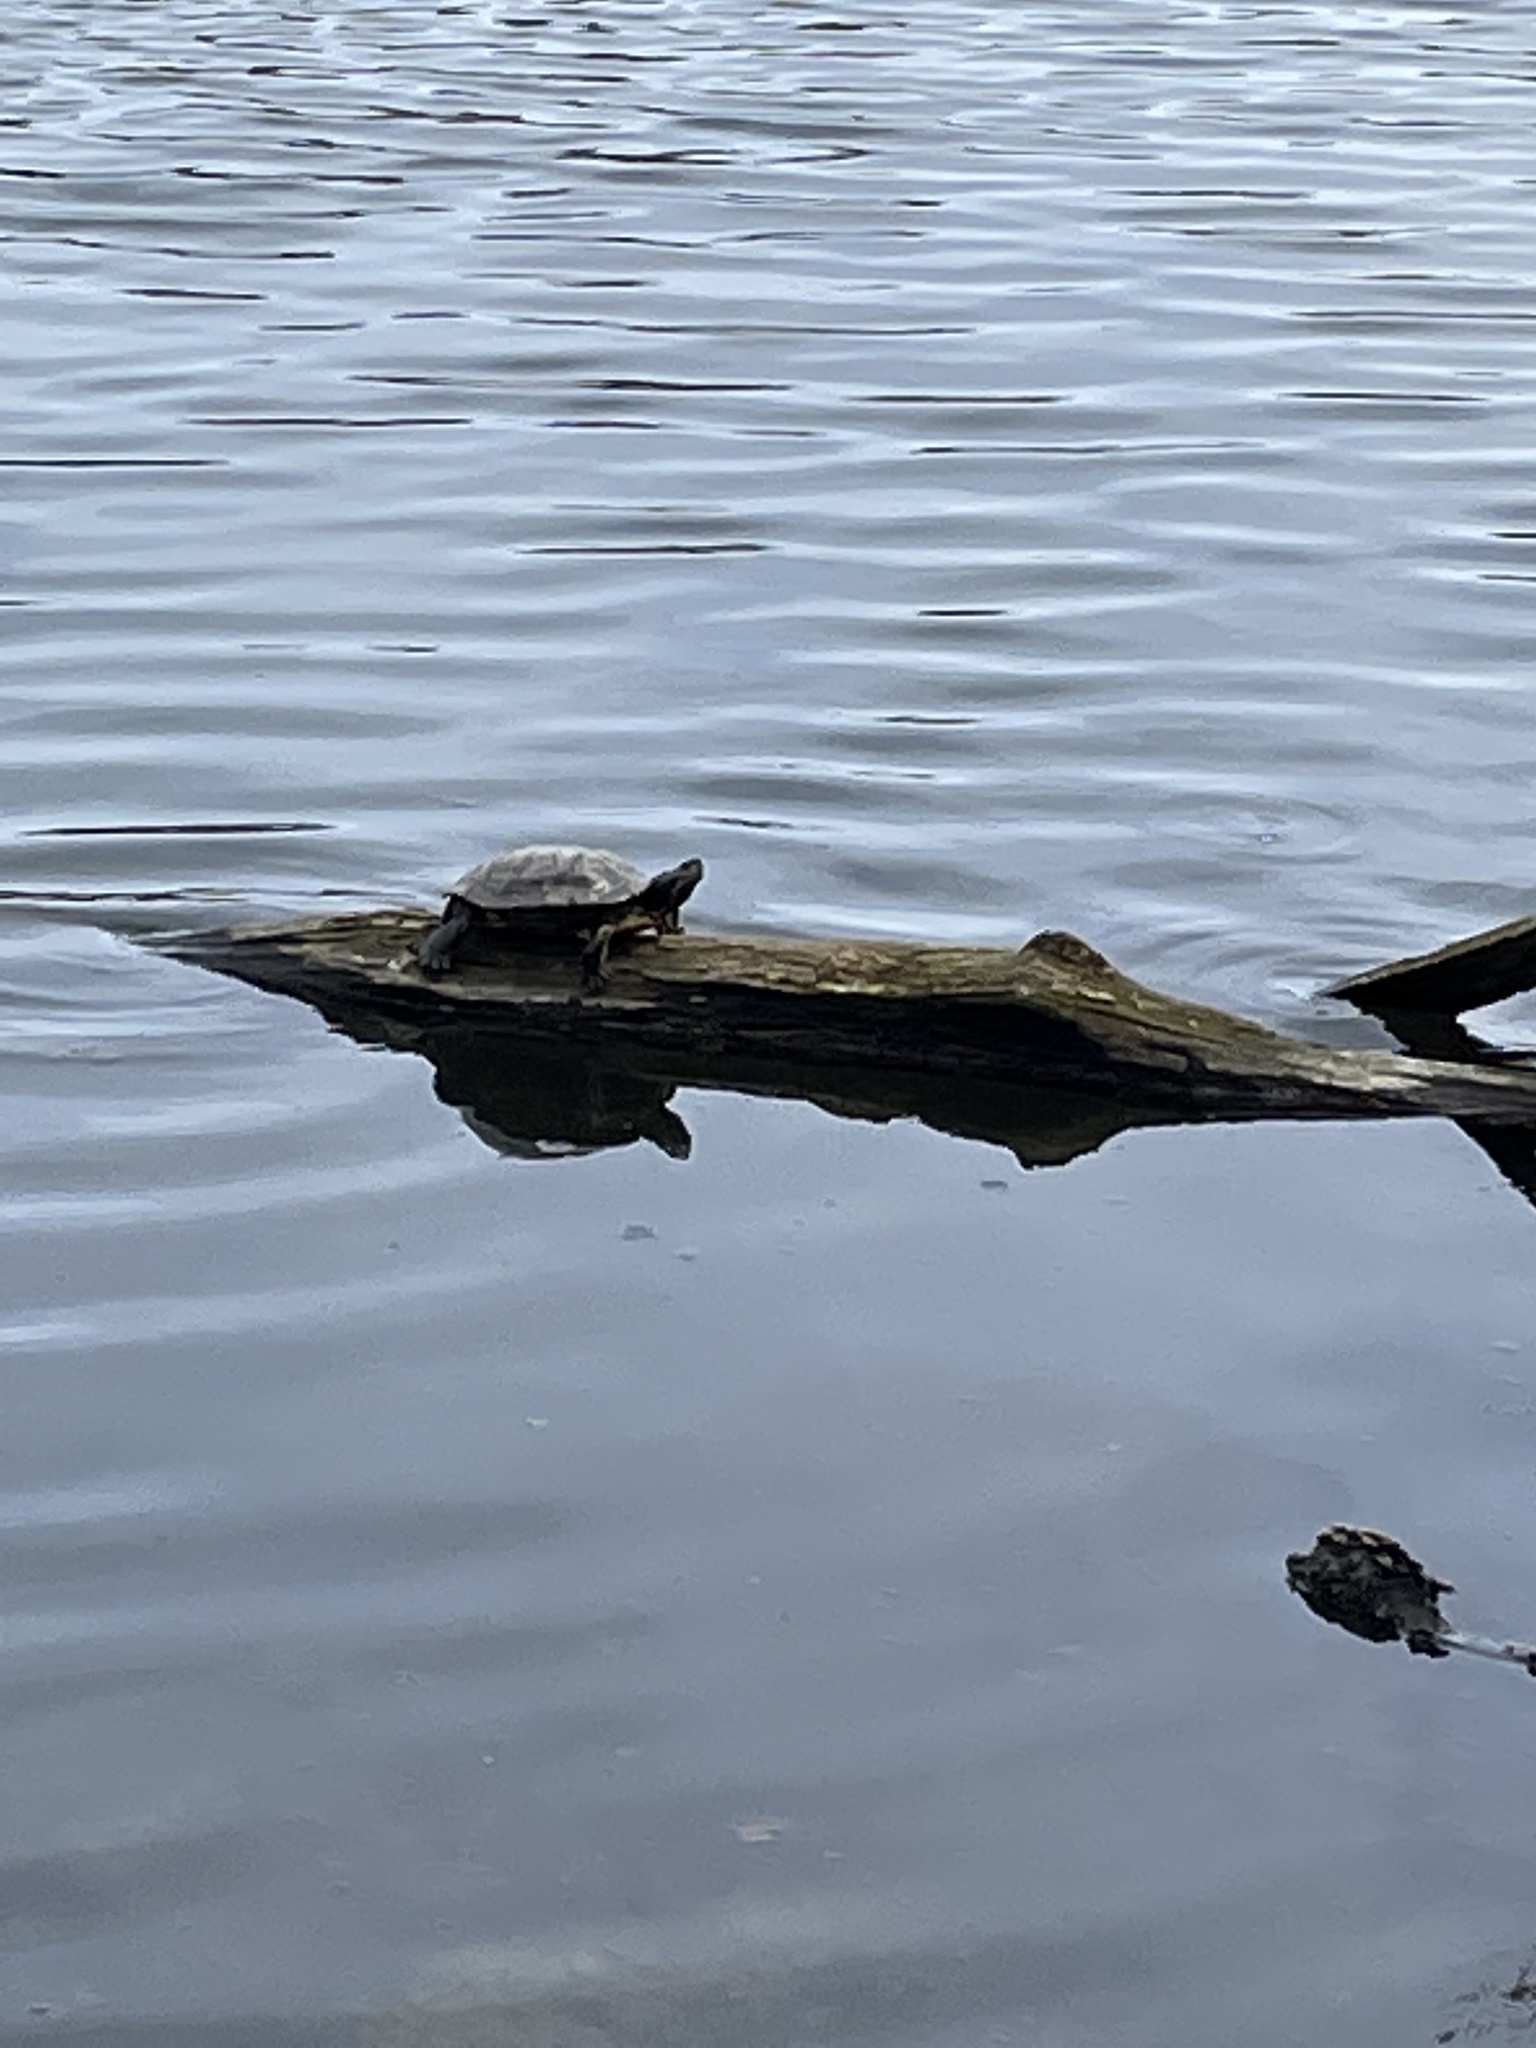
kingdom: Animalia
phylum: Chordata
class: Testudines
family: Emydidae
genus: Trachemys
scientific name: Trachemys scripta
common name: Slider
